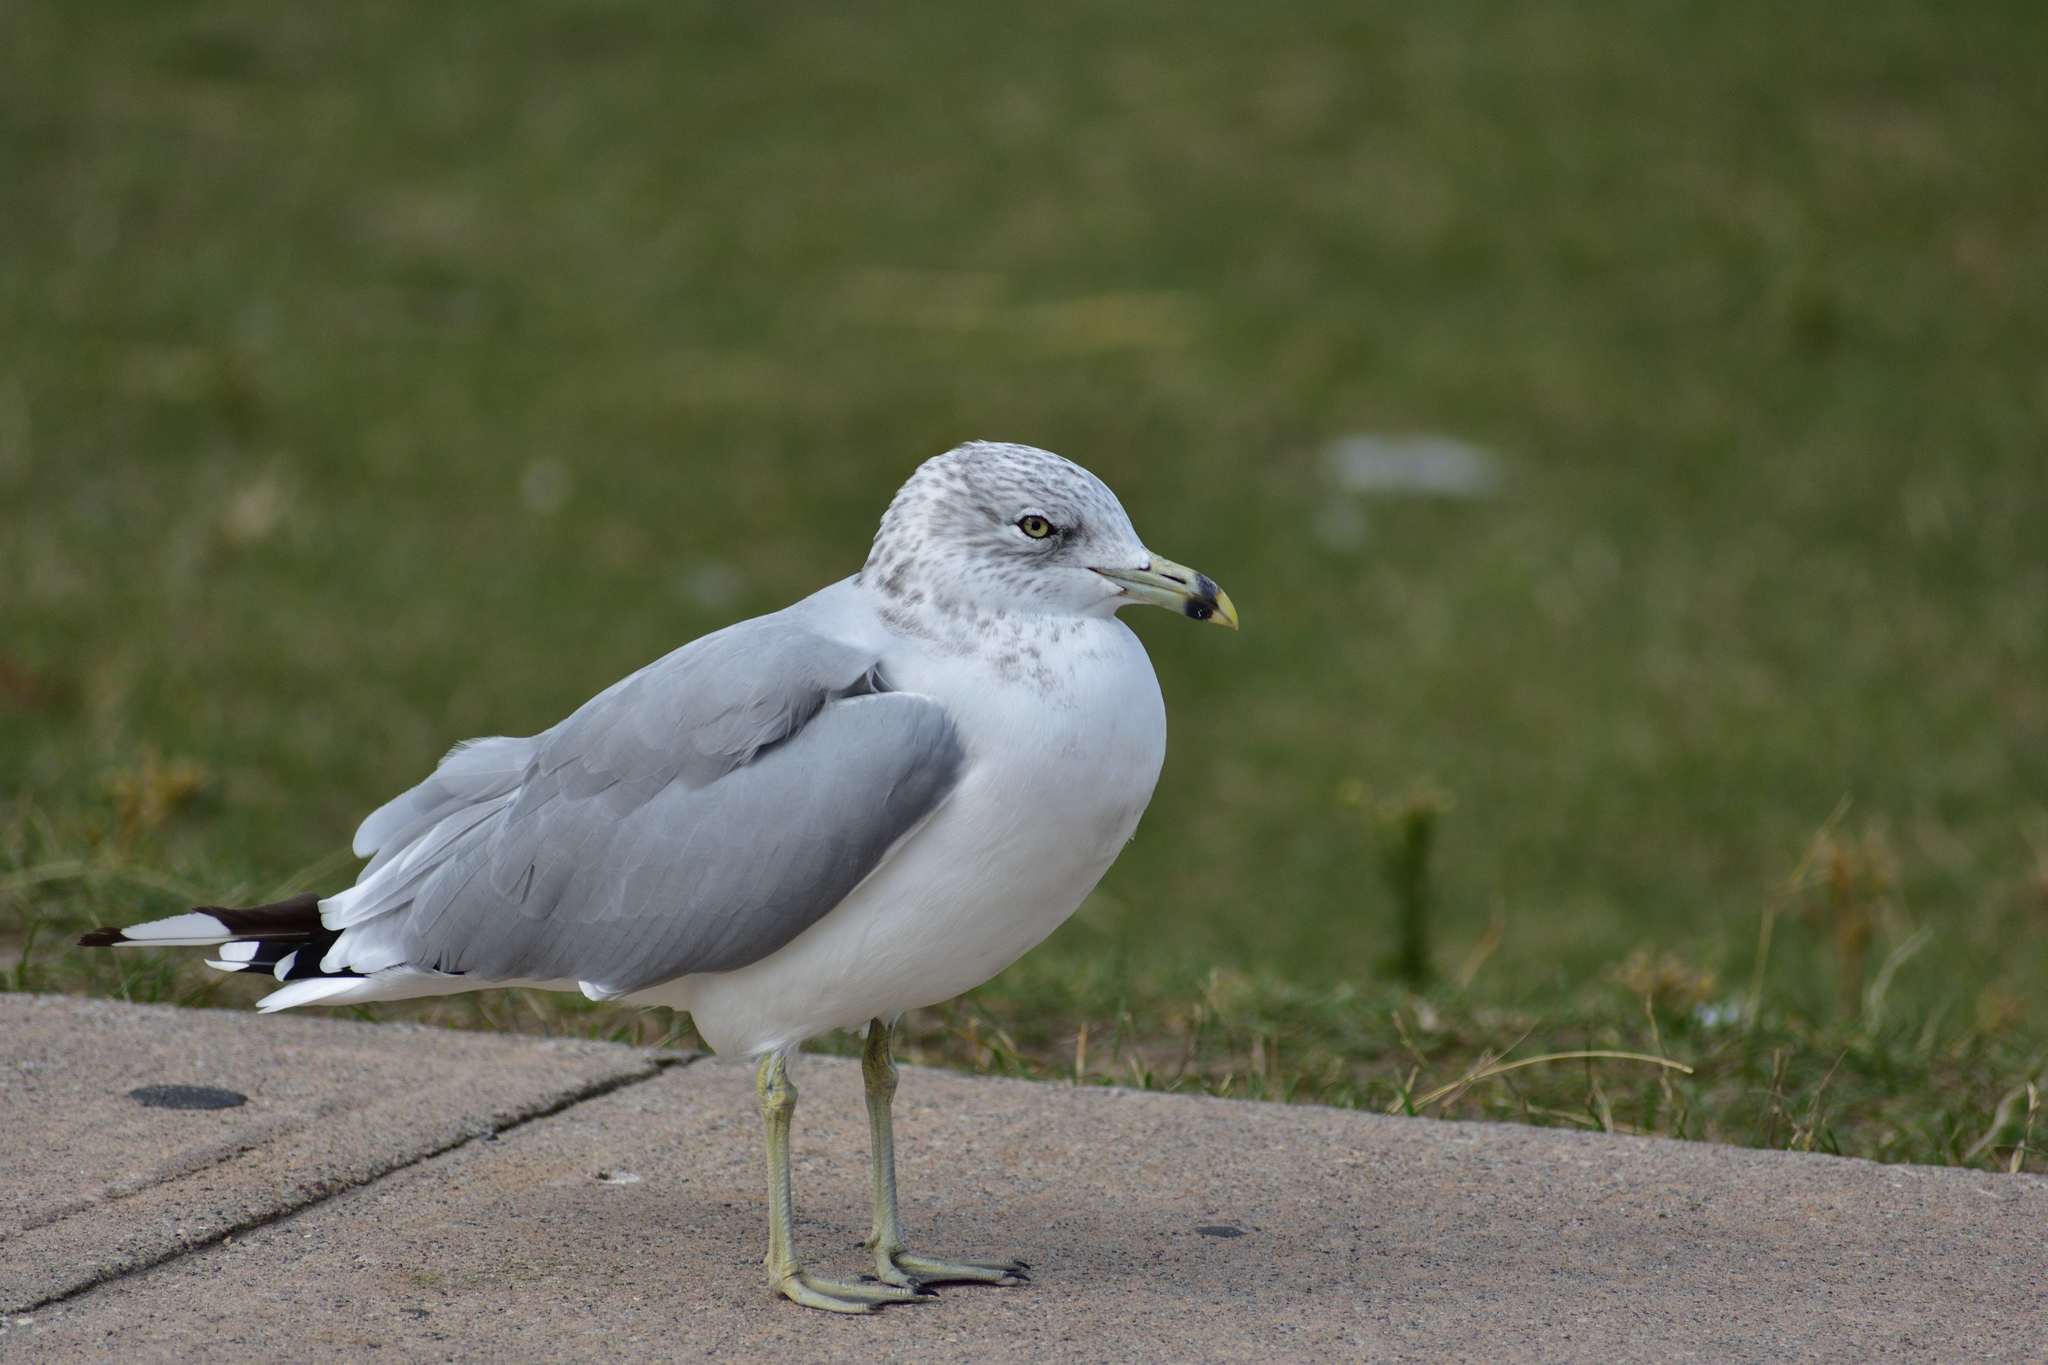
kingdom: Animalia
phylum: Chordata
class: Aves
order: Charadriiformes
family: Laridae
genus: Larus
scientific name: Larus delawarensis
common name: Ring-billed gull
